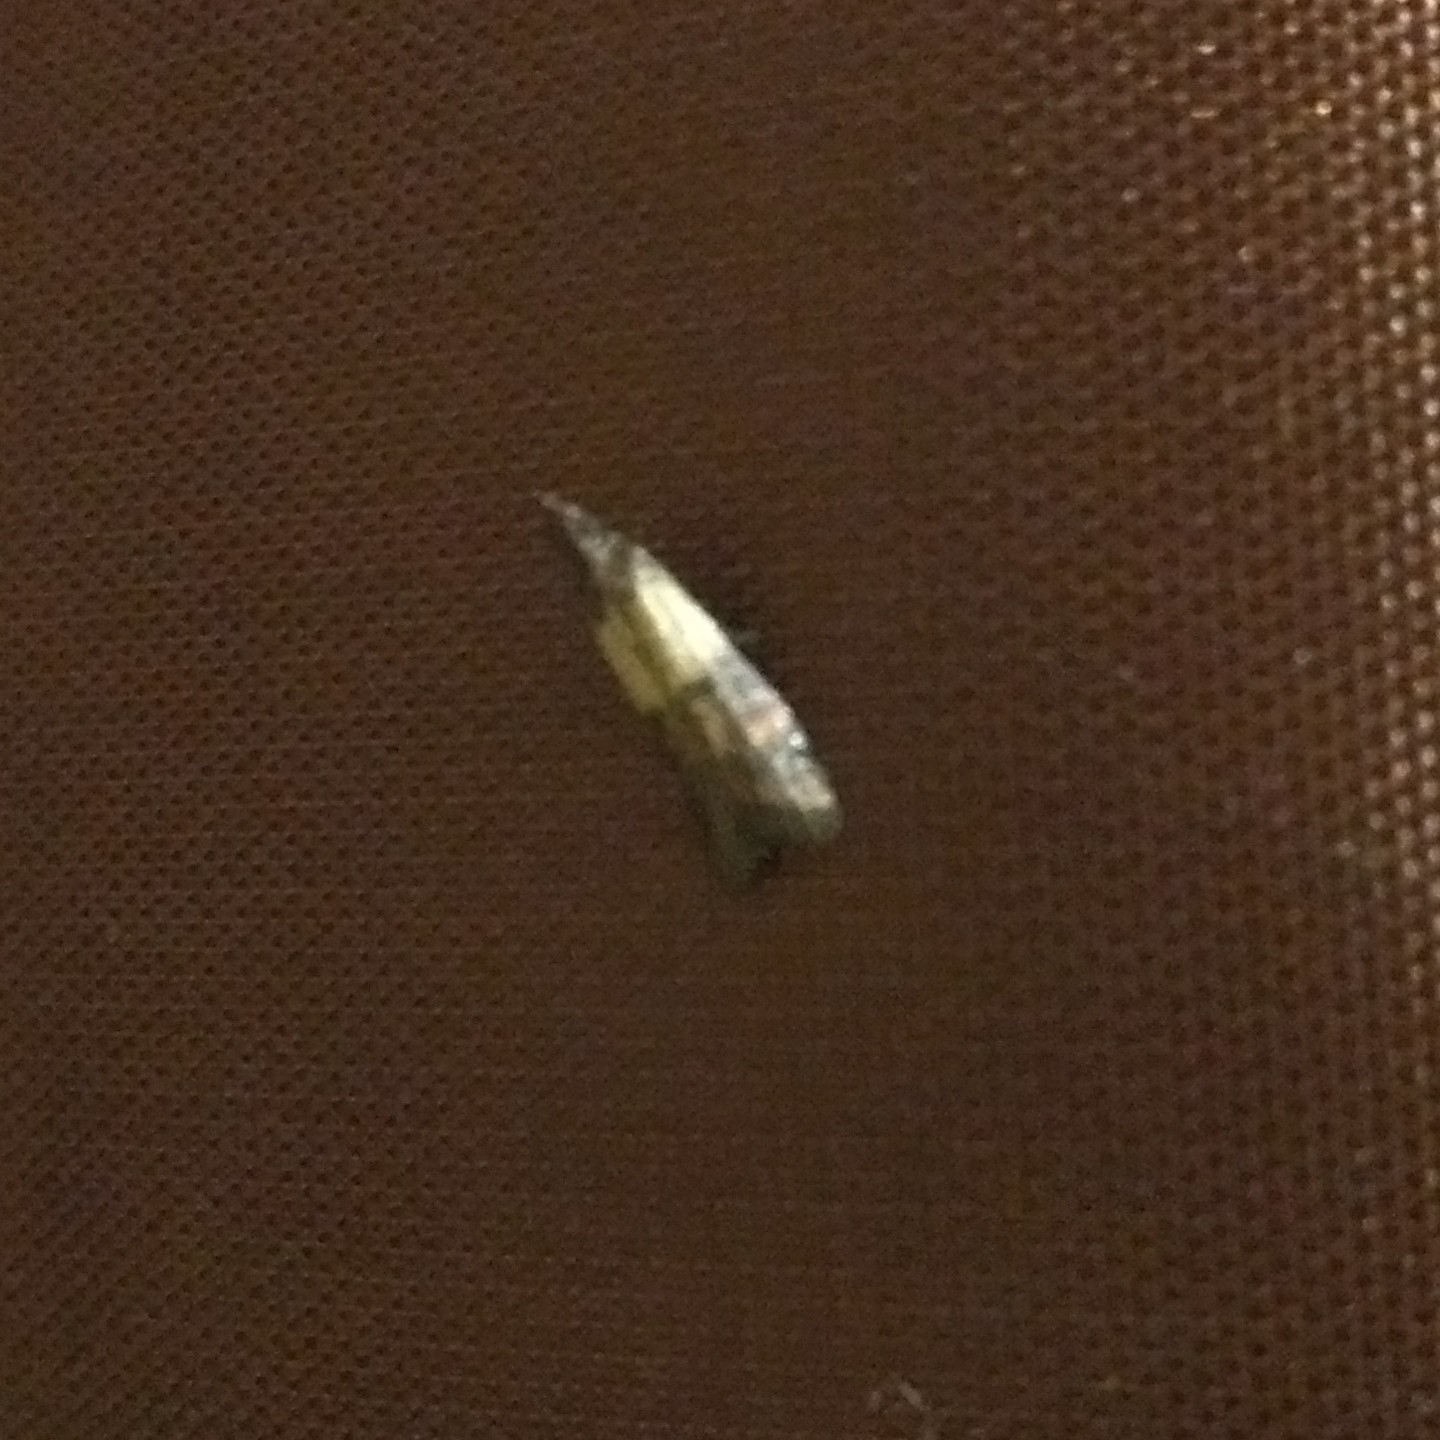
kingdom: Animalia
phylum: Arthropoda
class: Insecta
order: Lepidoptera
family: Pyralidae
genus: Plodia
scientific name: Plodia interpunctella
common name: Indian meal moth
